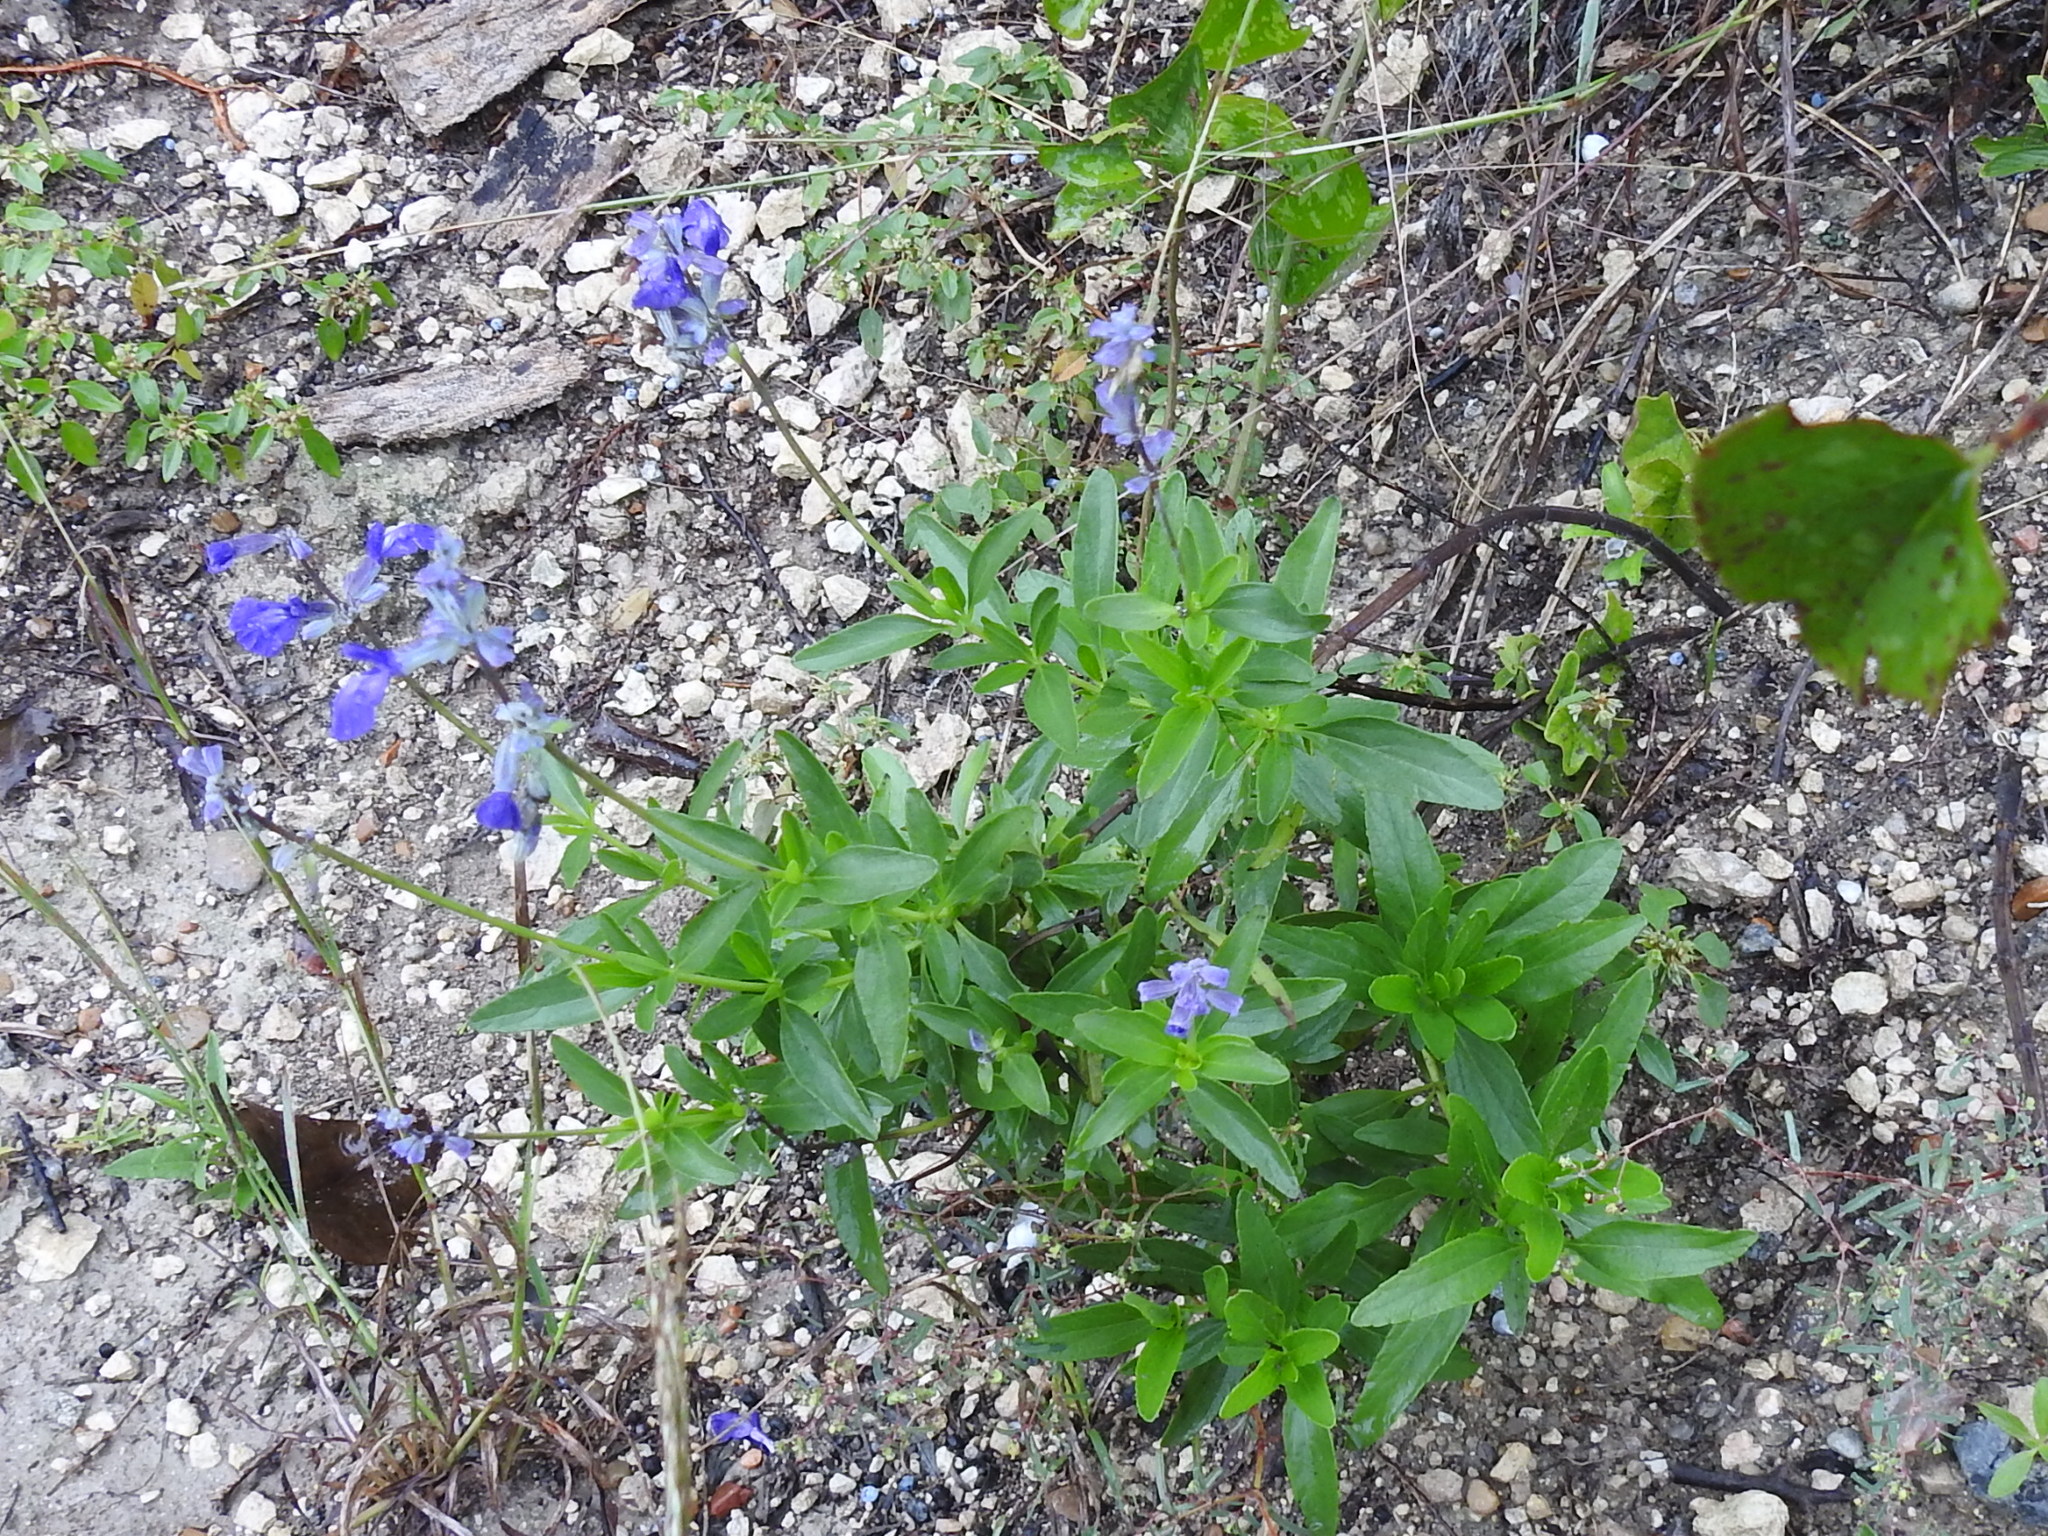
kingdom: Plantae
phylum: Tracheophyta
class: Magnoliopsida
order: Lamiales
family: Lamiaceae
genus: Salvia
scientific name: Salvia farinacea
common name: Mealy sage
